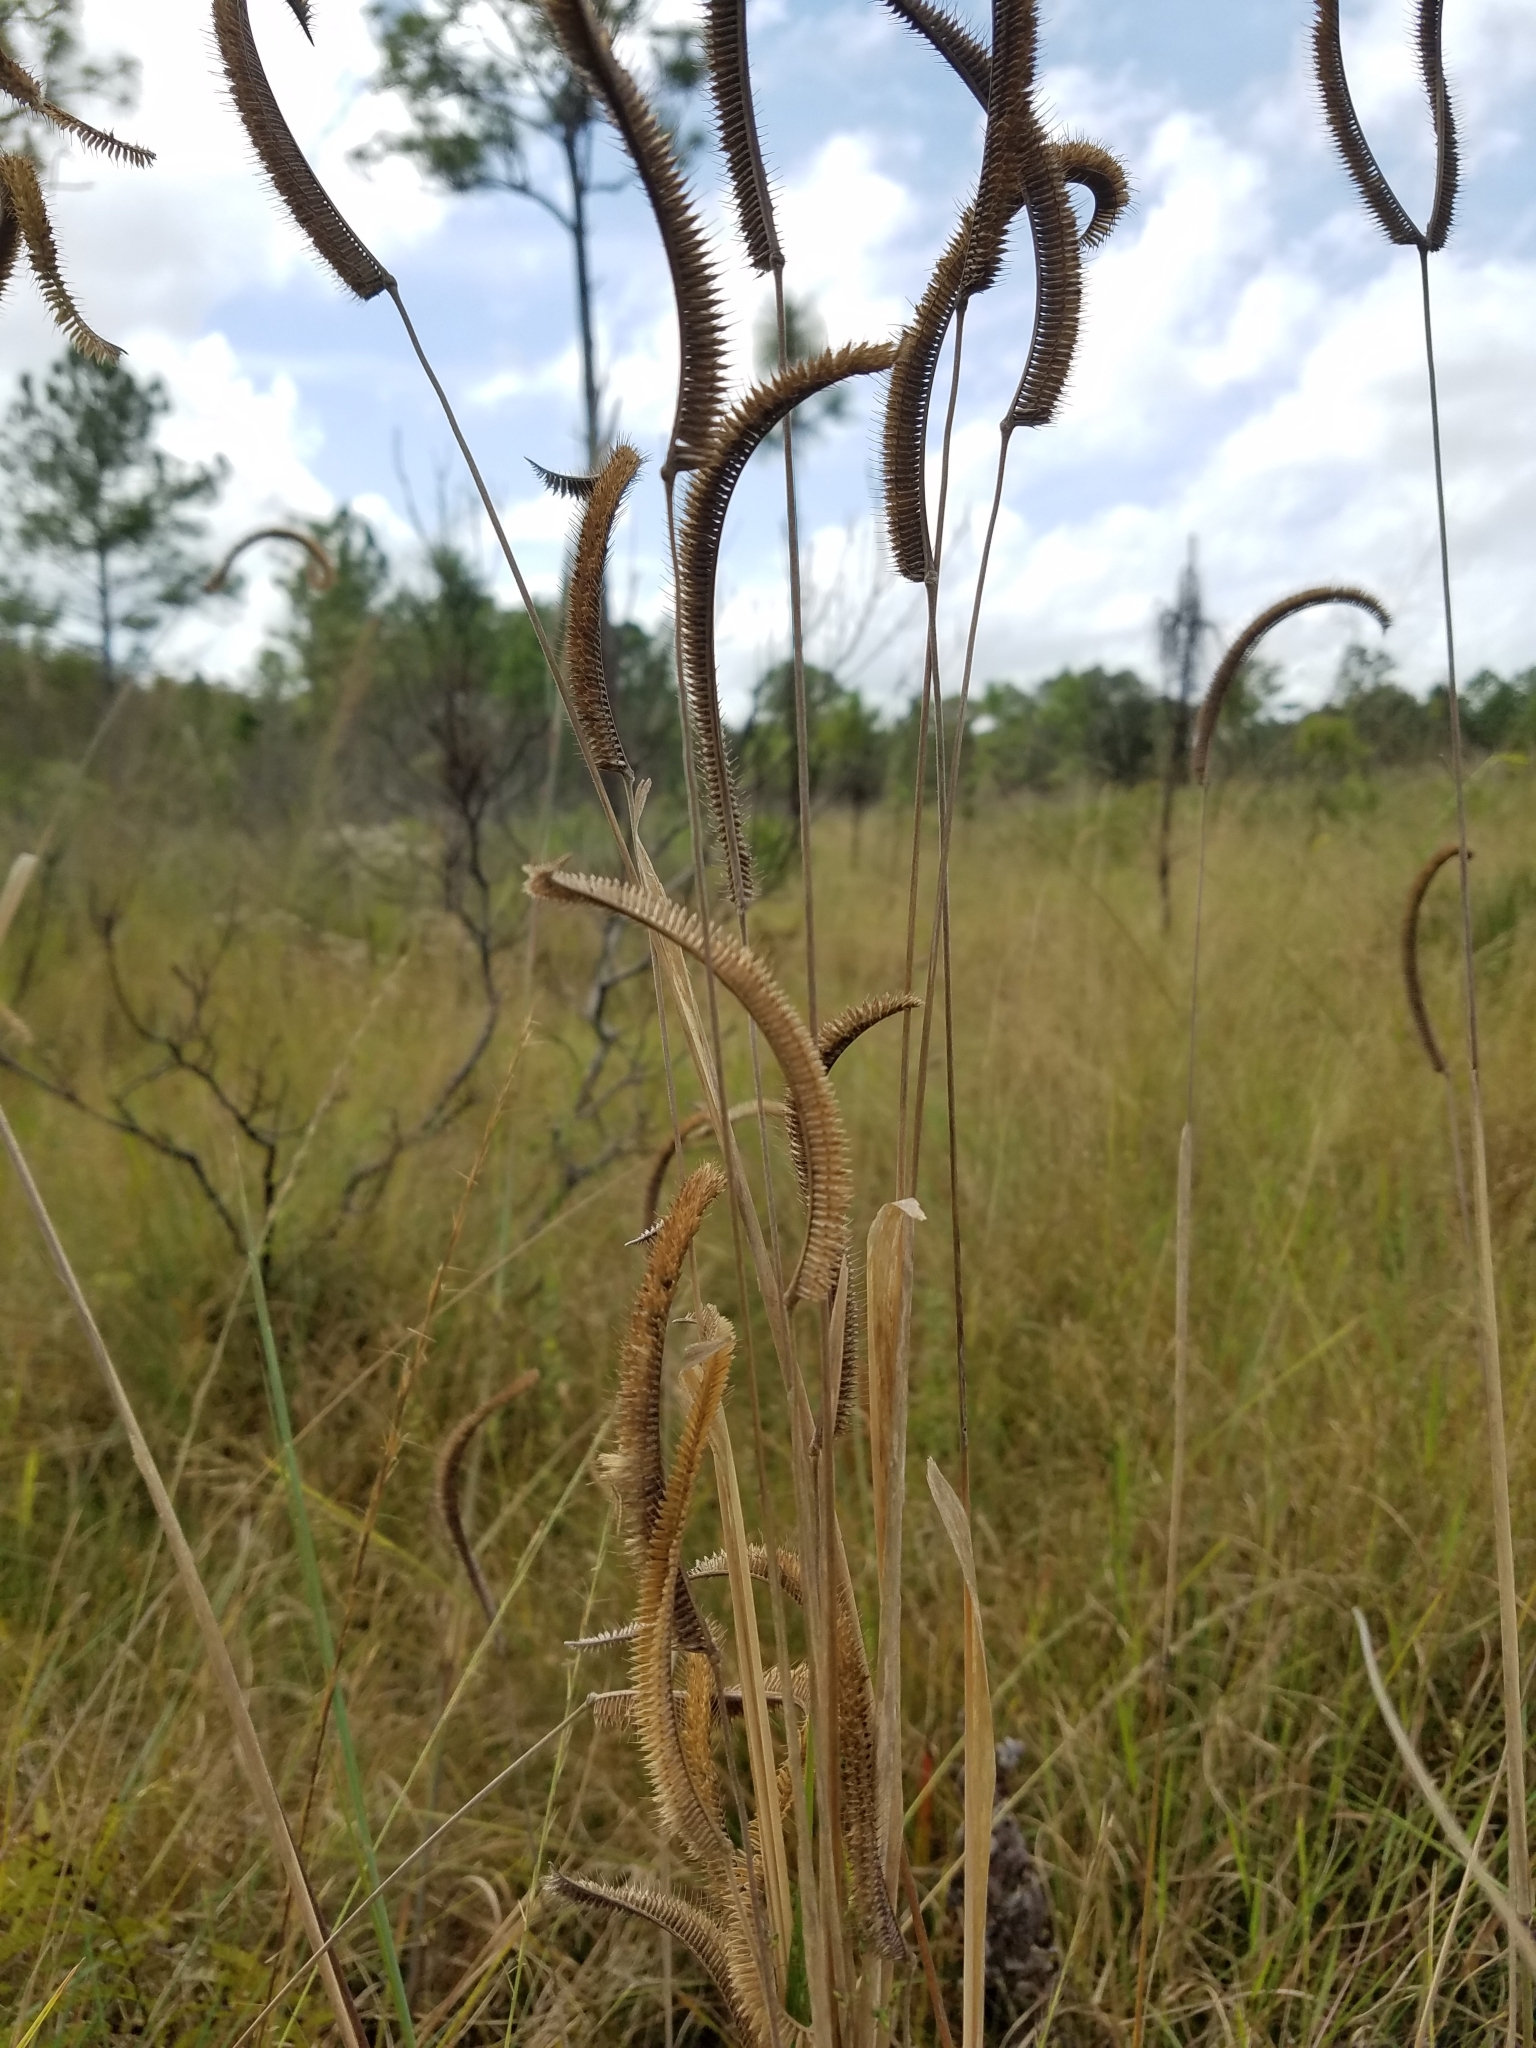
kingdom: Plantae
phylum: Tracheophyta
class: Liliopsida
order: Poales
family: Poaceae
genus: Ctenium
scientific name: Ctenium aromaticum
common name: Toothache grass
